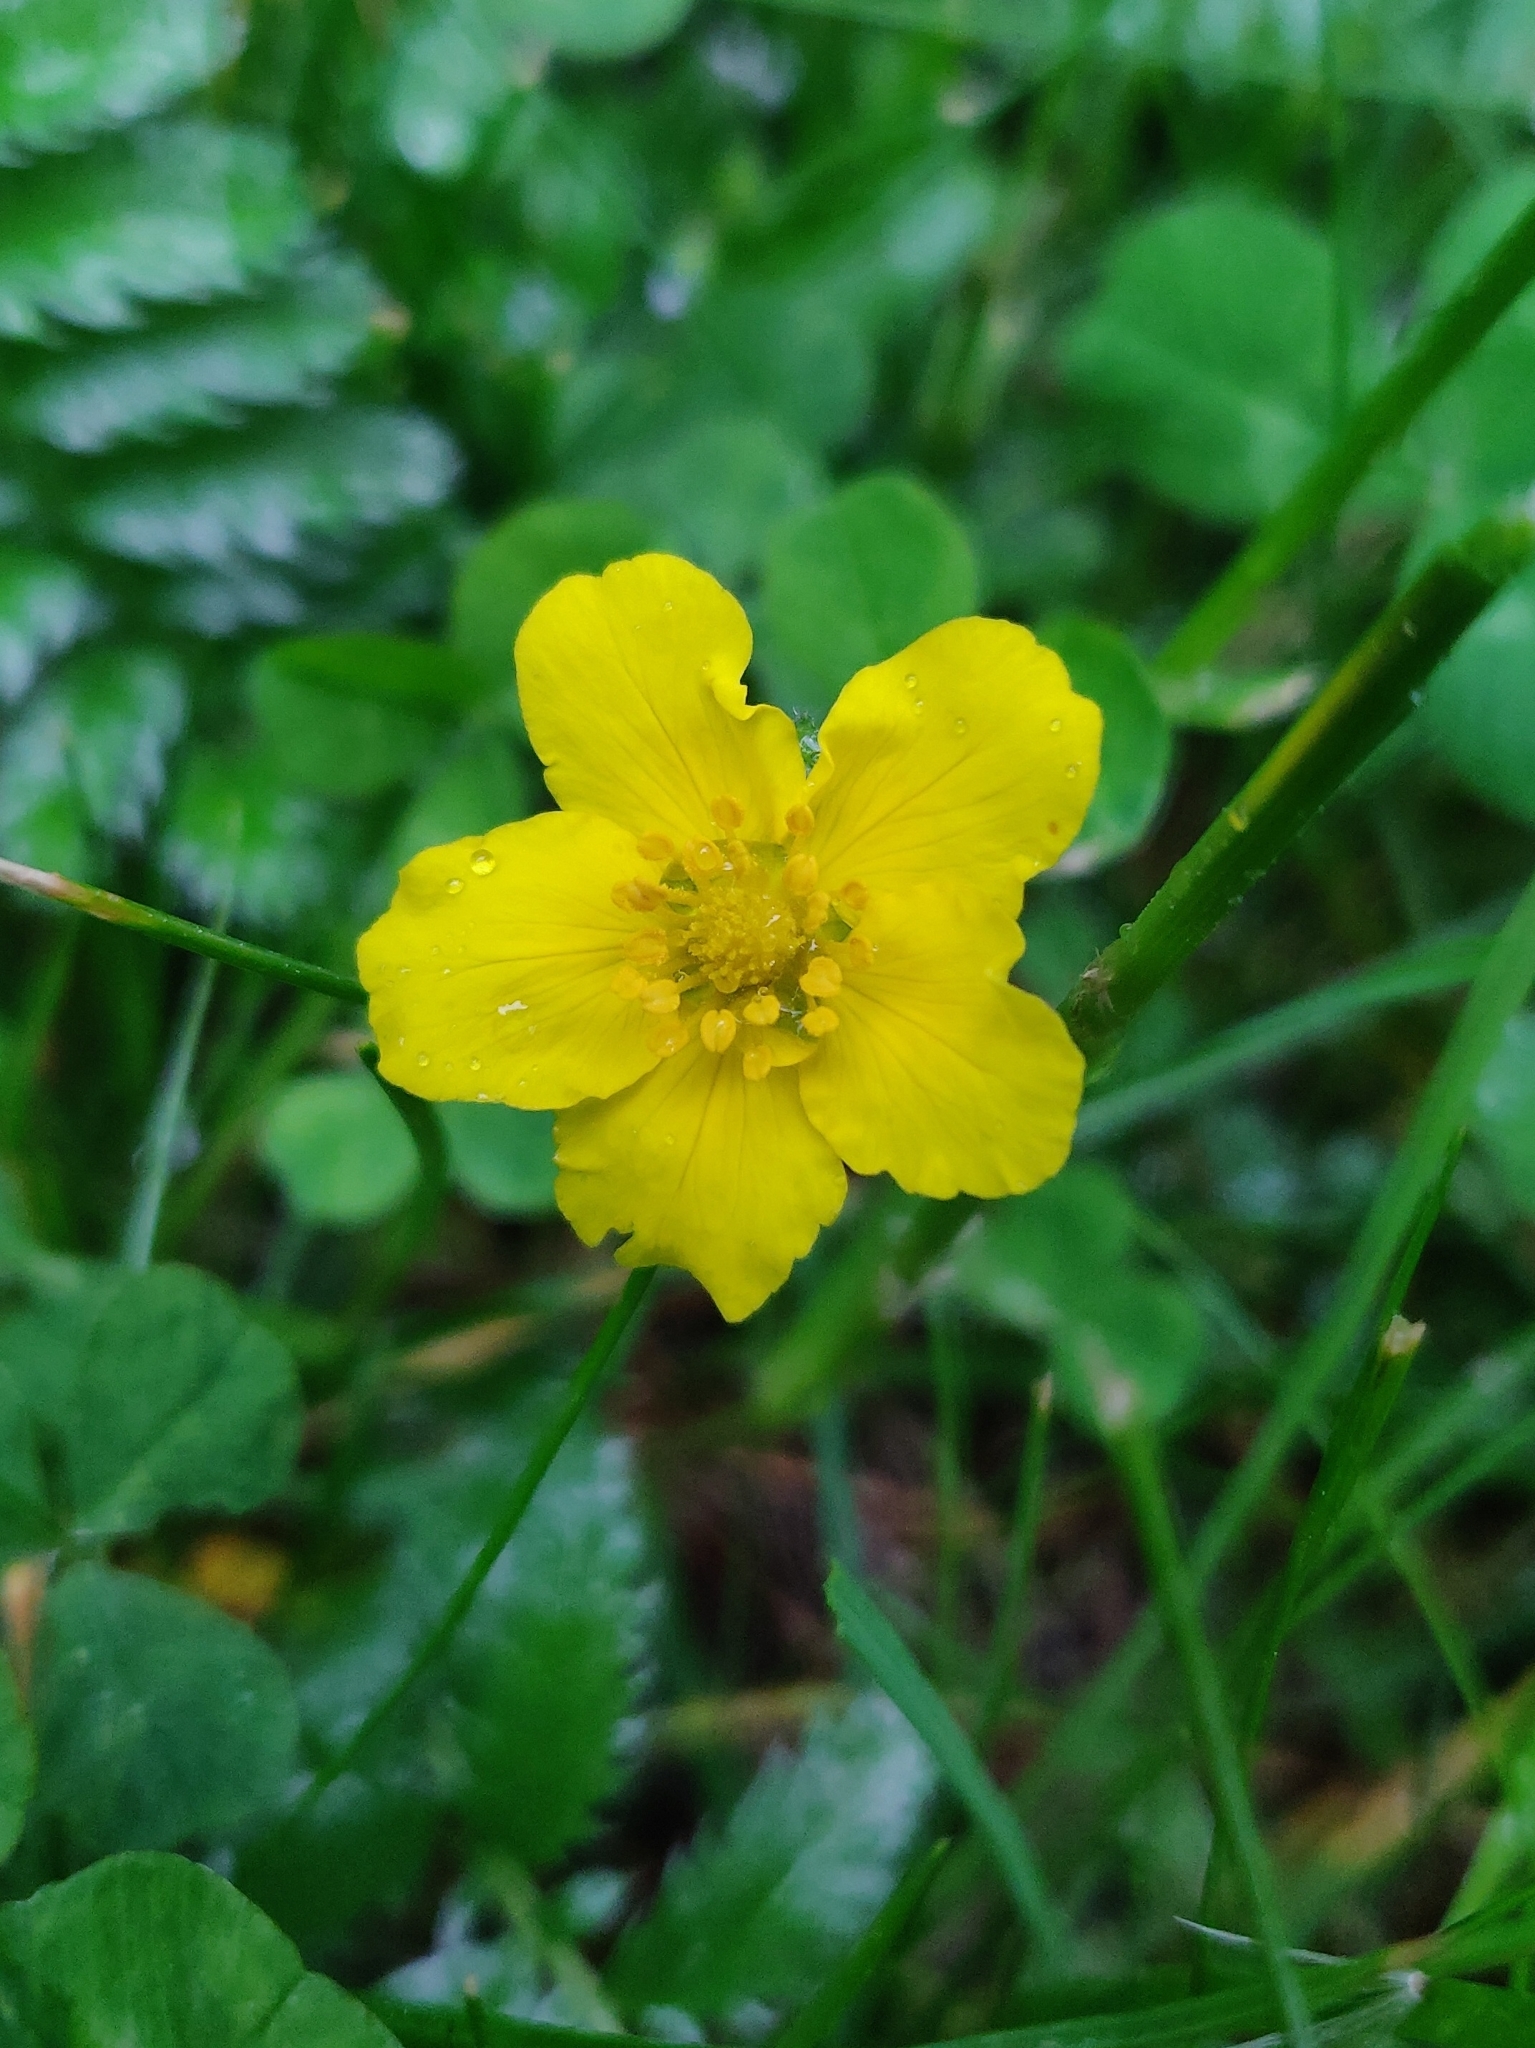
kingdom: Plantae
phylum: Tracheophyta
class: Magnoliopsida
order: Rosales
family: Rosaceae
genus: Argentina
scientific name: Argentina anserina
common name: Common silverweed
